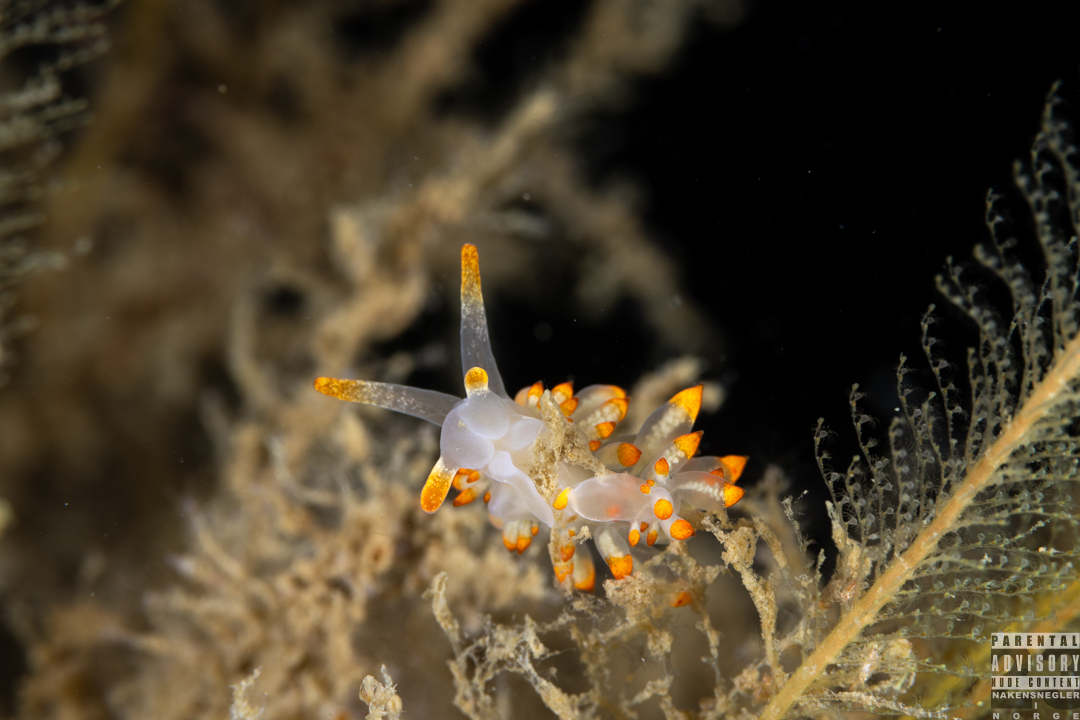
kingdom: Animalia
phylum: Mollusca
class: Gastropoda
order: Nudibranchia
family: Eubranchidae
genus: Amphorina
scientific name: Amphorina farrani
